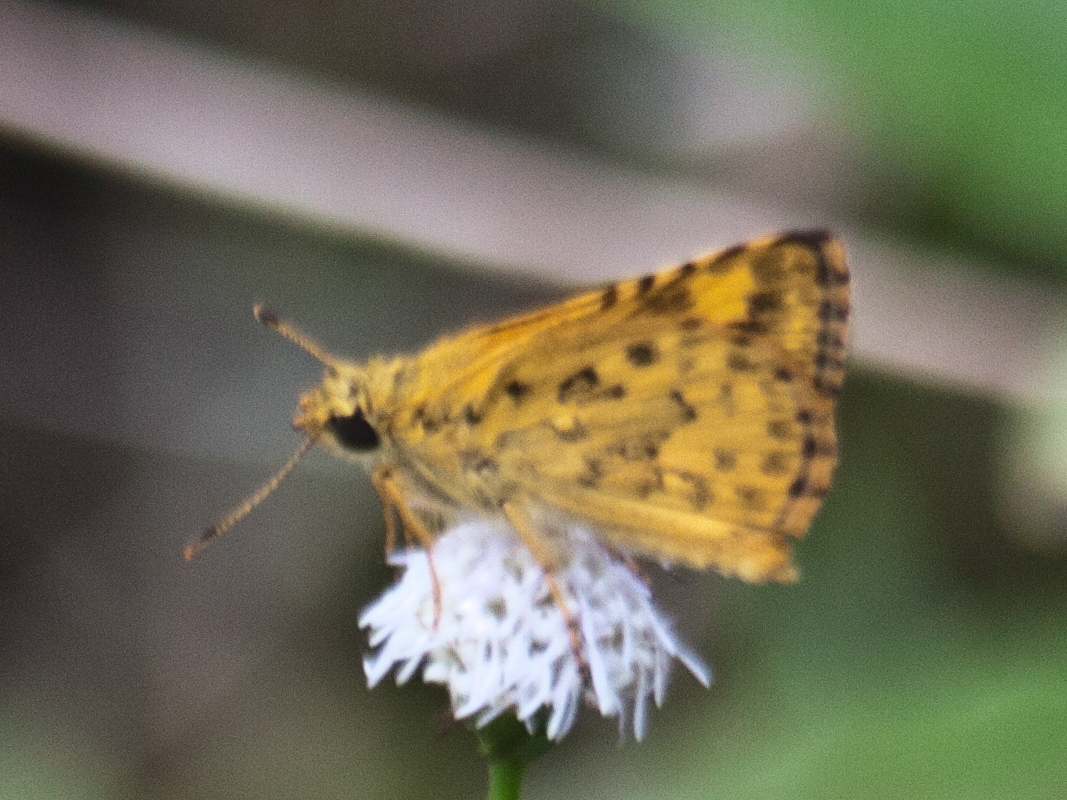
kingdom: Animalia
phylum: Arthropoda
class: Insecta
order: Lepidoptera
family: Hesperiidae
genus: Ampittia
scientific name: Ampittia dioscorides
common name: Common bush hopper
